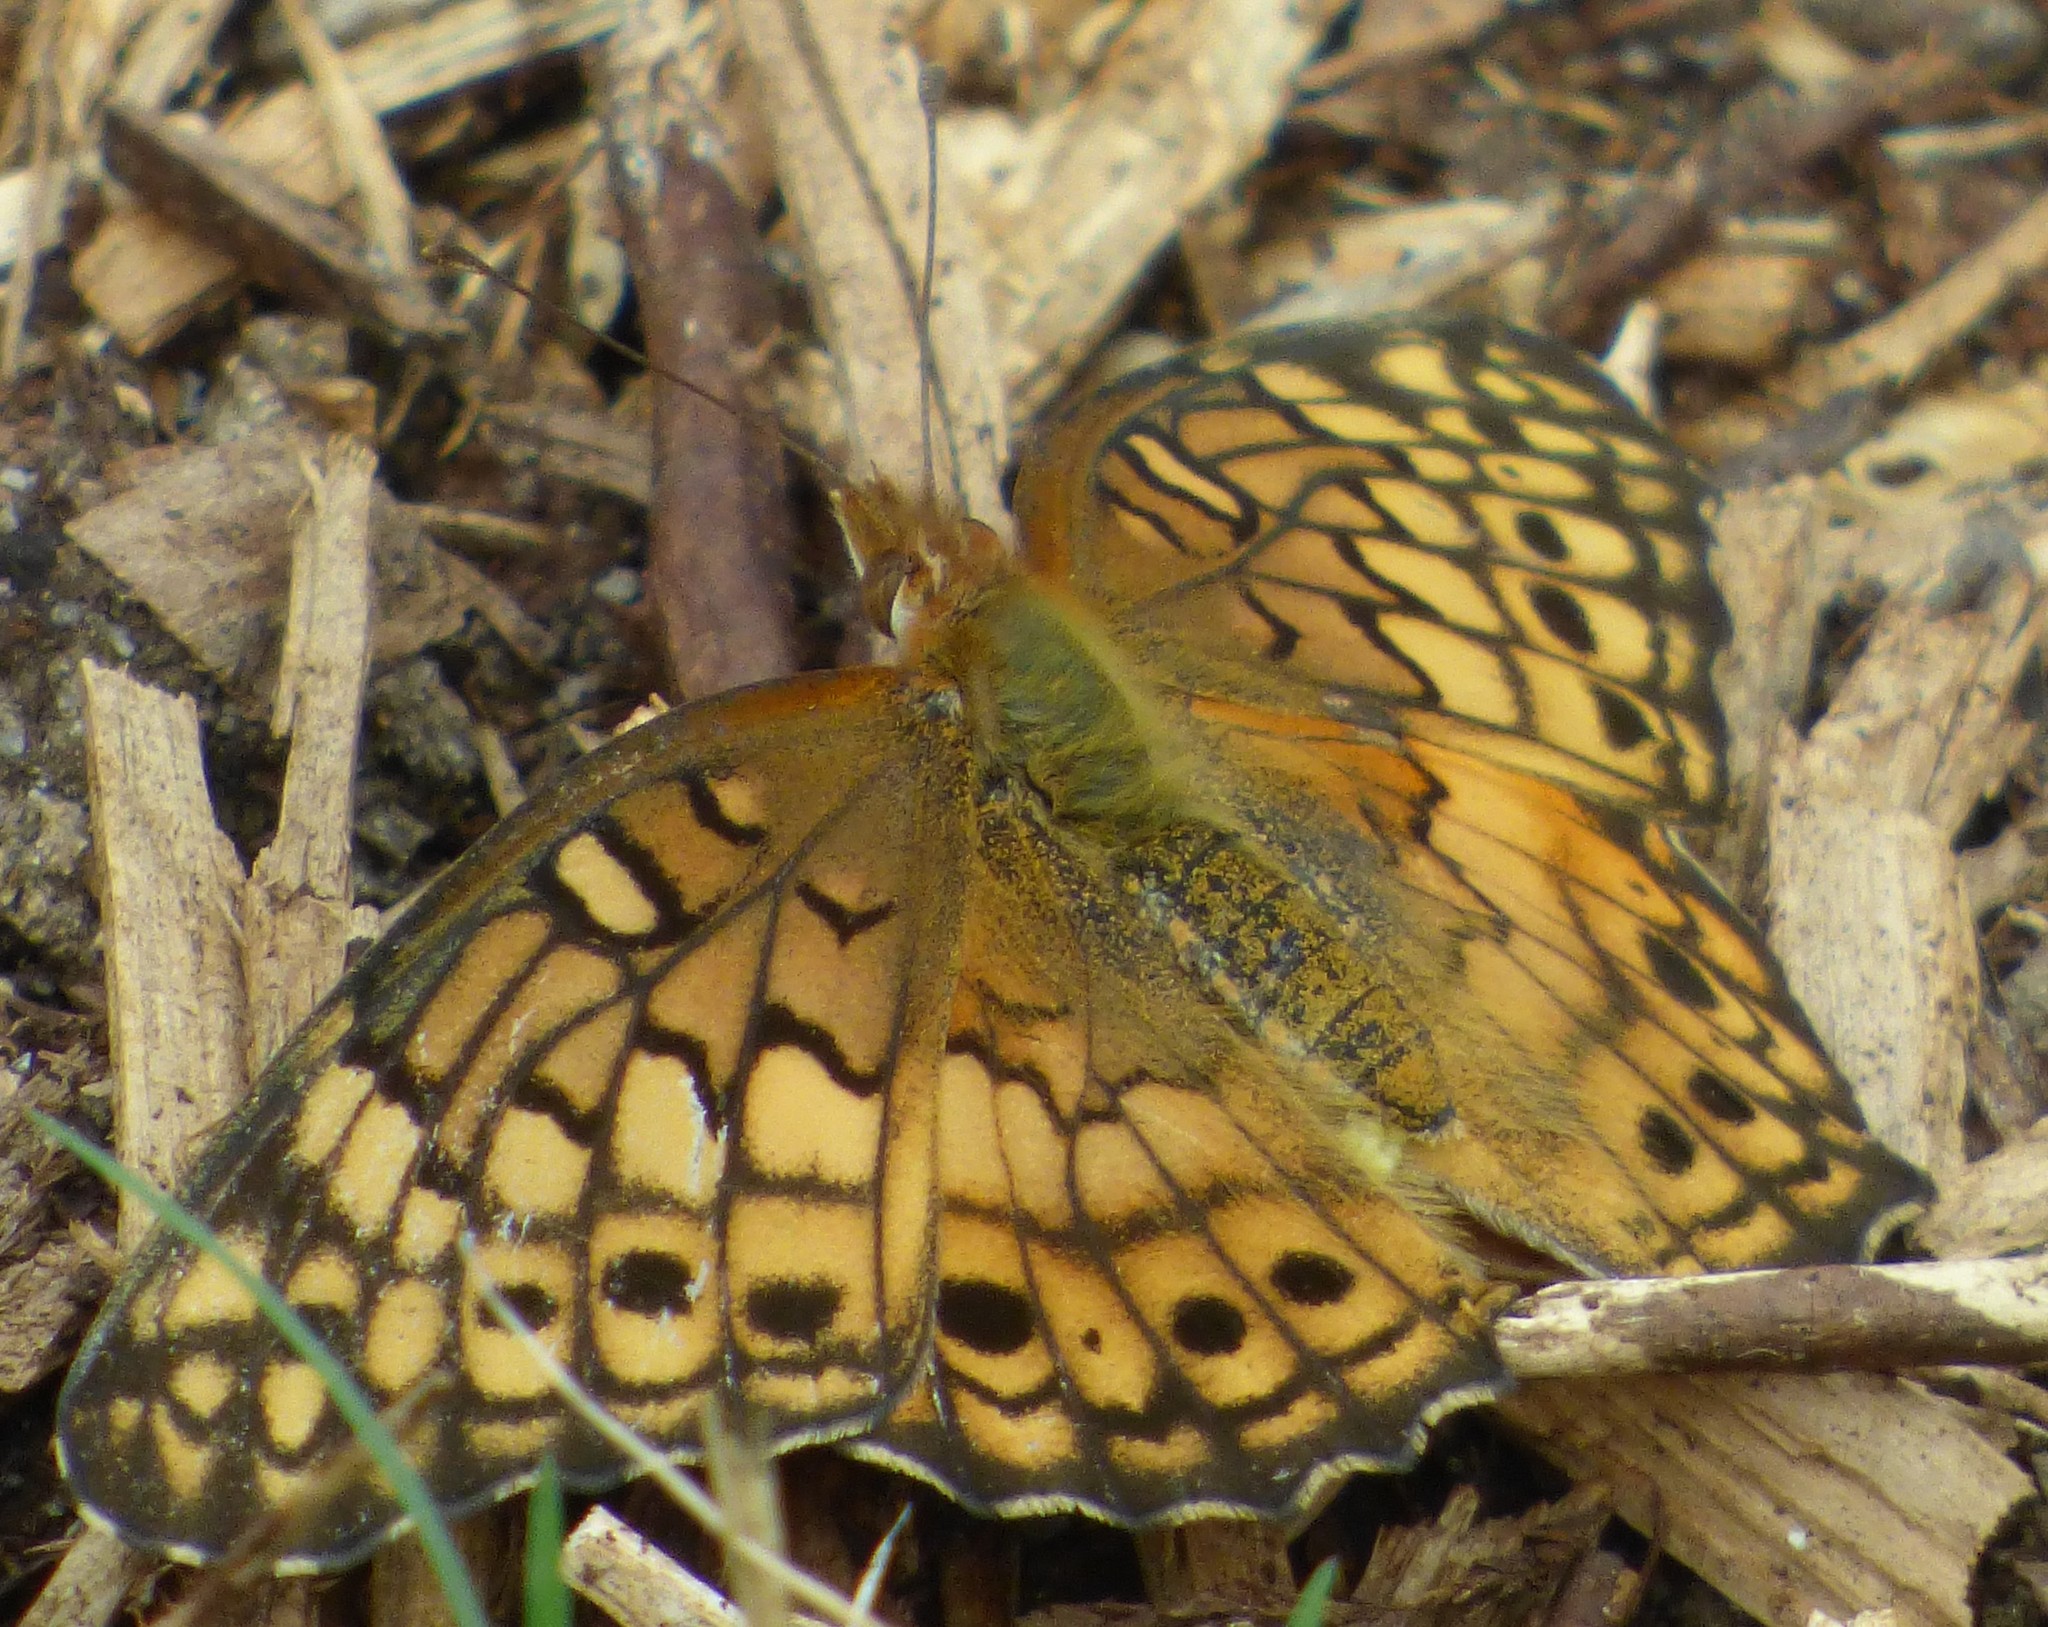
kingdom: Animalia
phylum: Arthropoda
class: Insecta
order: Lepidoptera
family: Nymphalidae
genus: Euptoieta
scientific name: Euptoieta claudia
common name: Variegated fritillary
